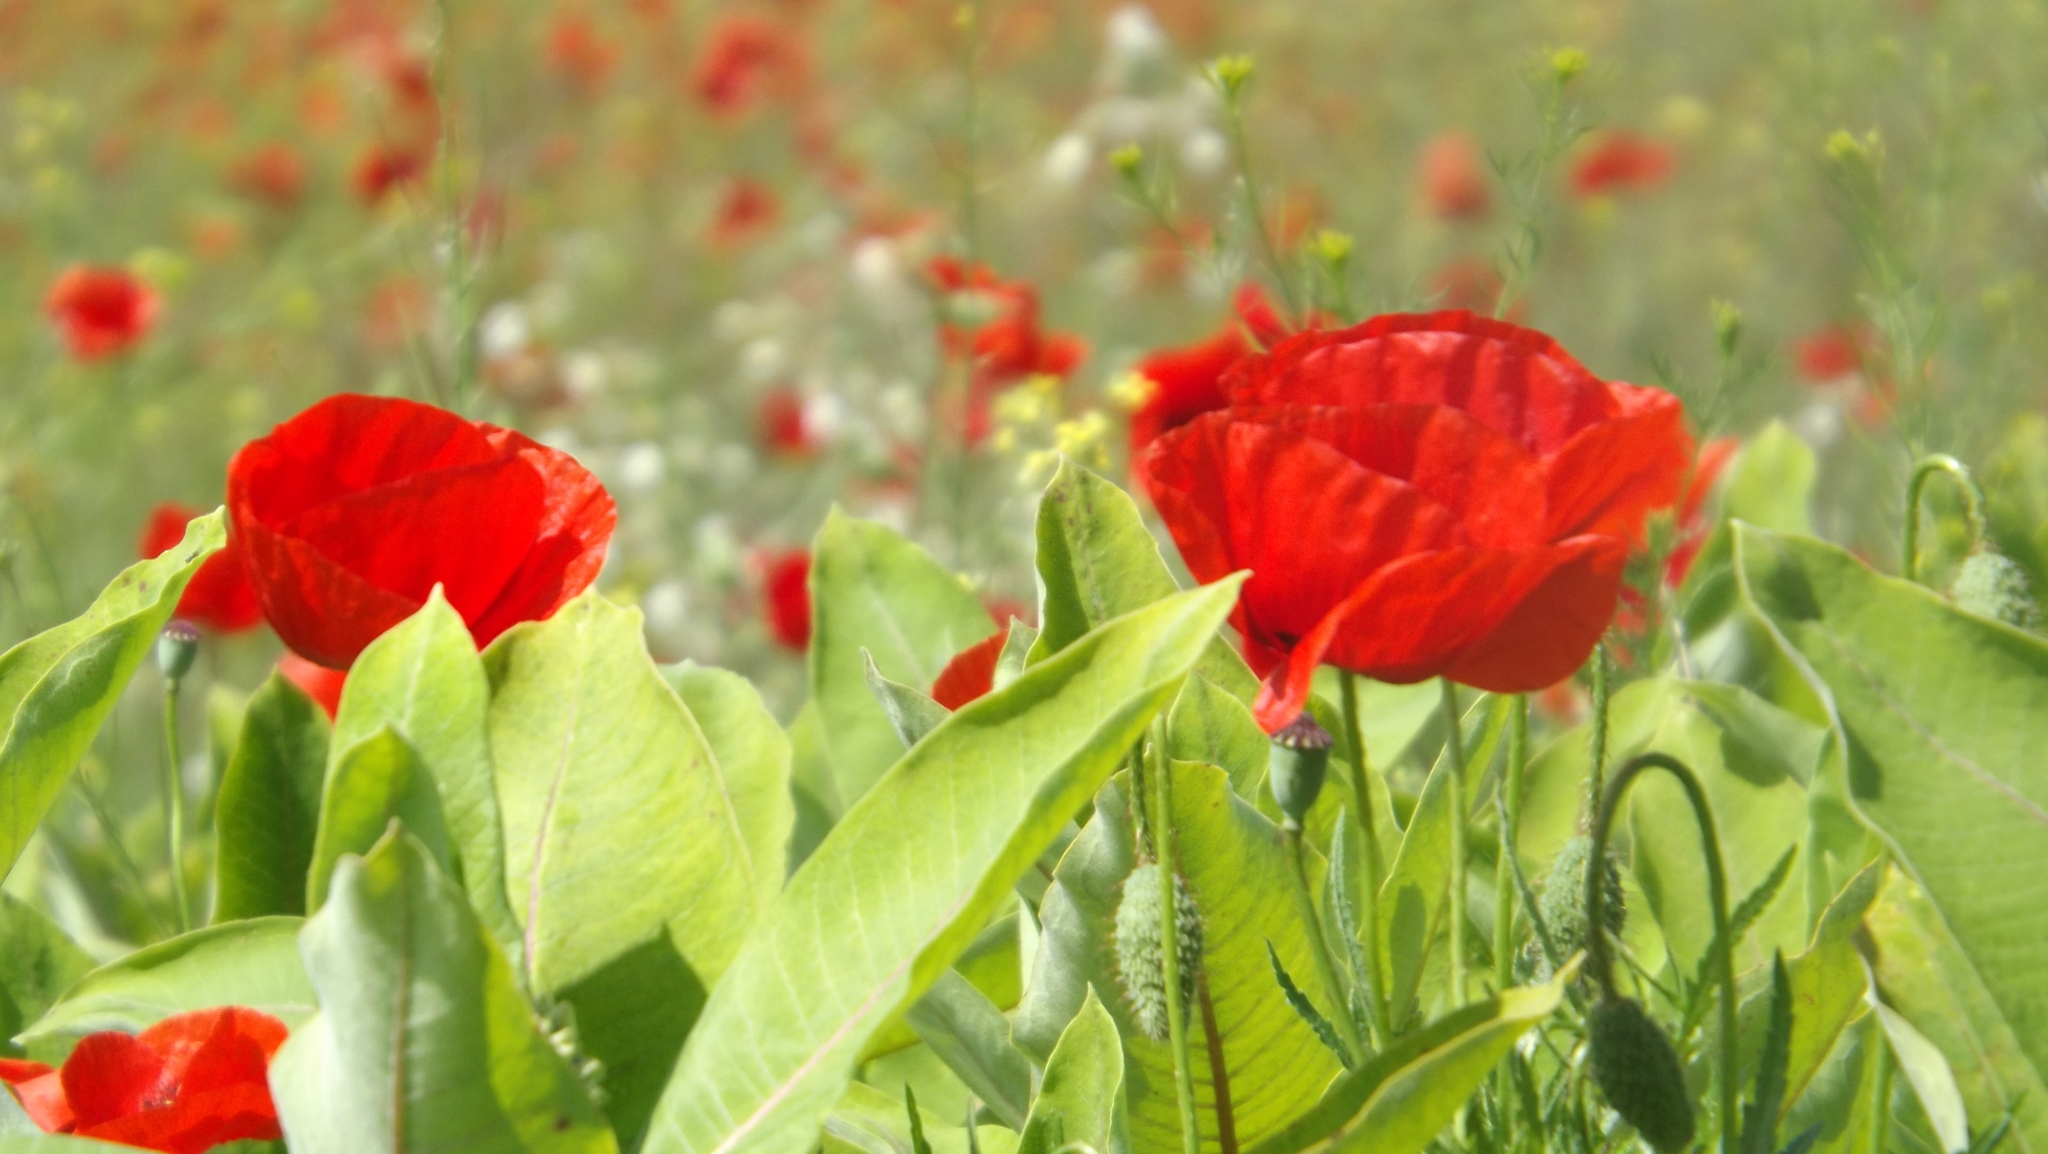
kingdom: Plantae
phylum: Tracheophyta
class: Magnoliopsida
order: Ranunculales
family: Papaveraceae
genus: Papaver
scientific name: Papaver rhoeas
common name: Corn poppy
